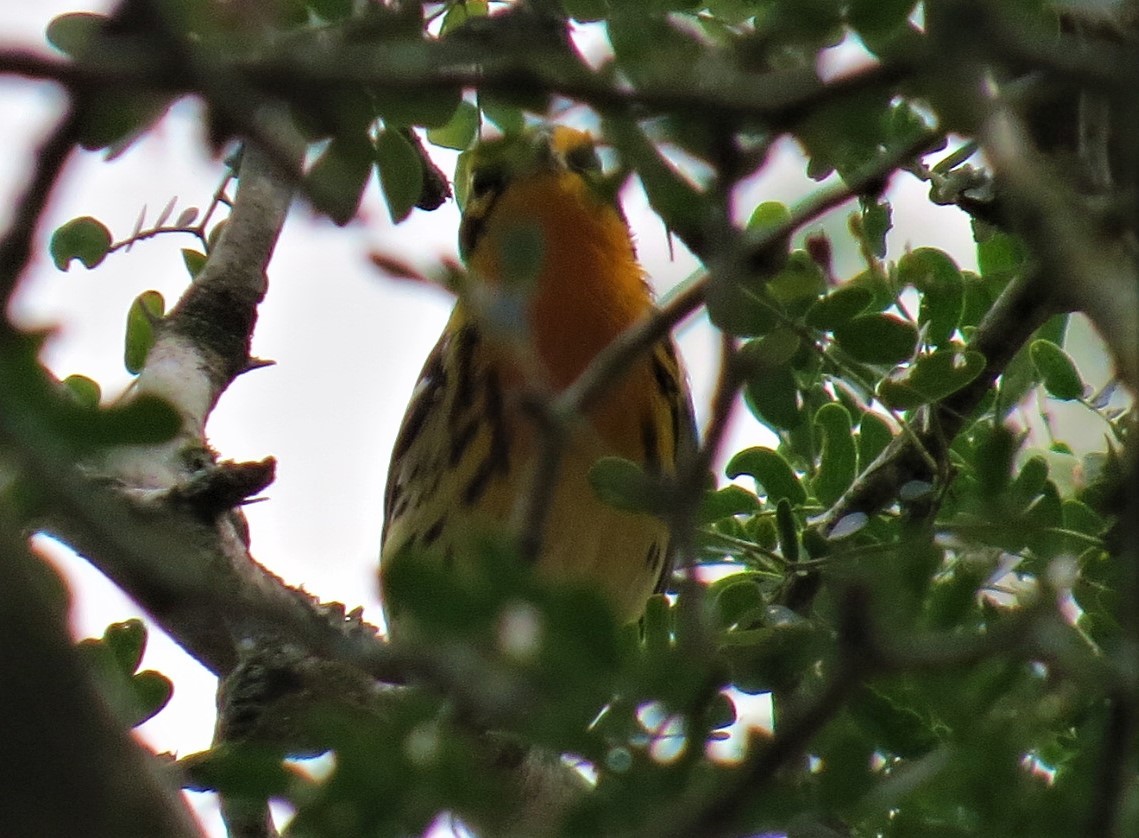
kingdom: Animalia
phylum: Chordata
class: Aves
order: Passeriformes
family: Parulidae
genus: Setophaga
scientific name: Setophaga fusca
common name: Blackburnian warbler
